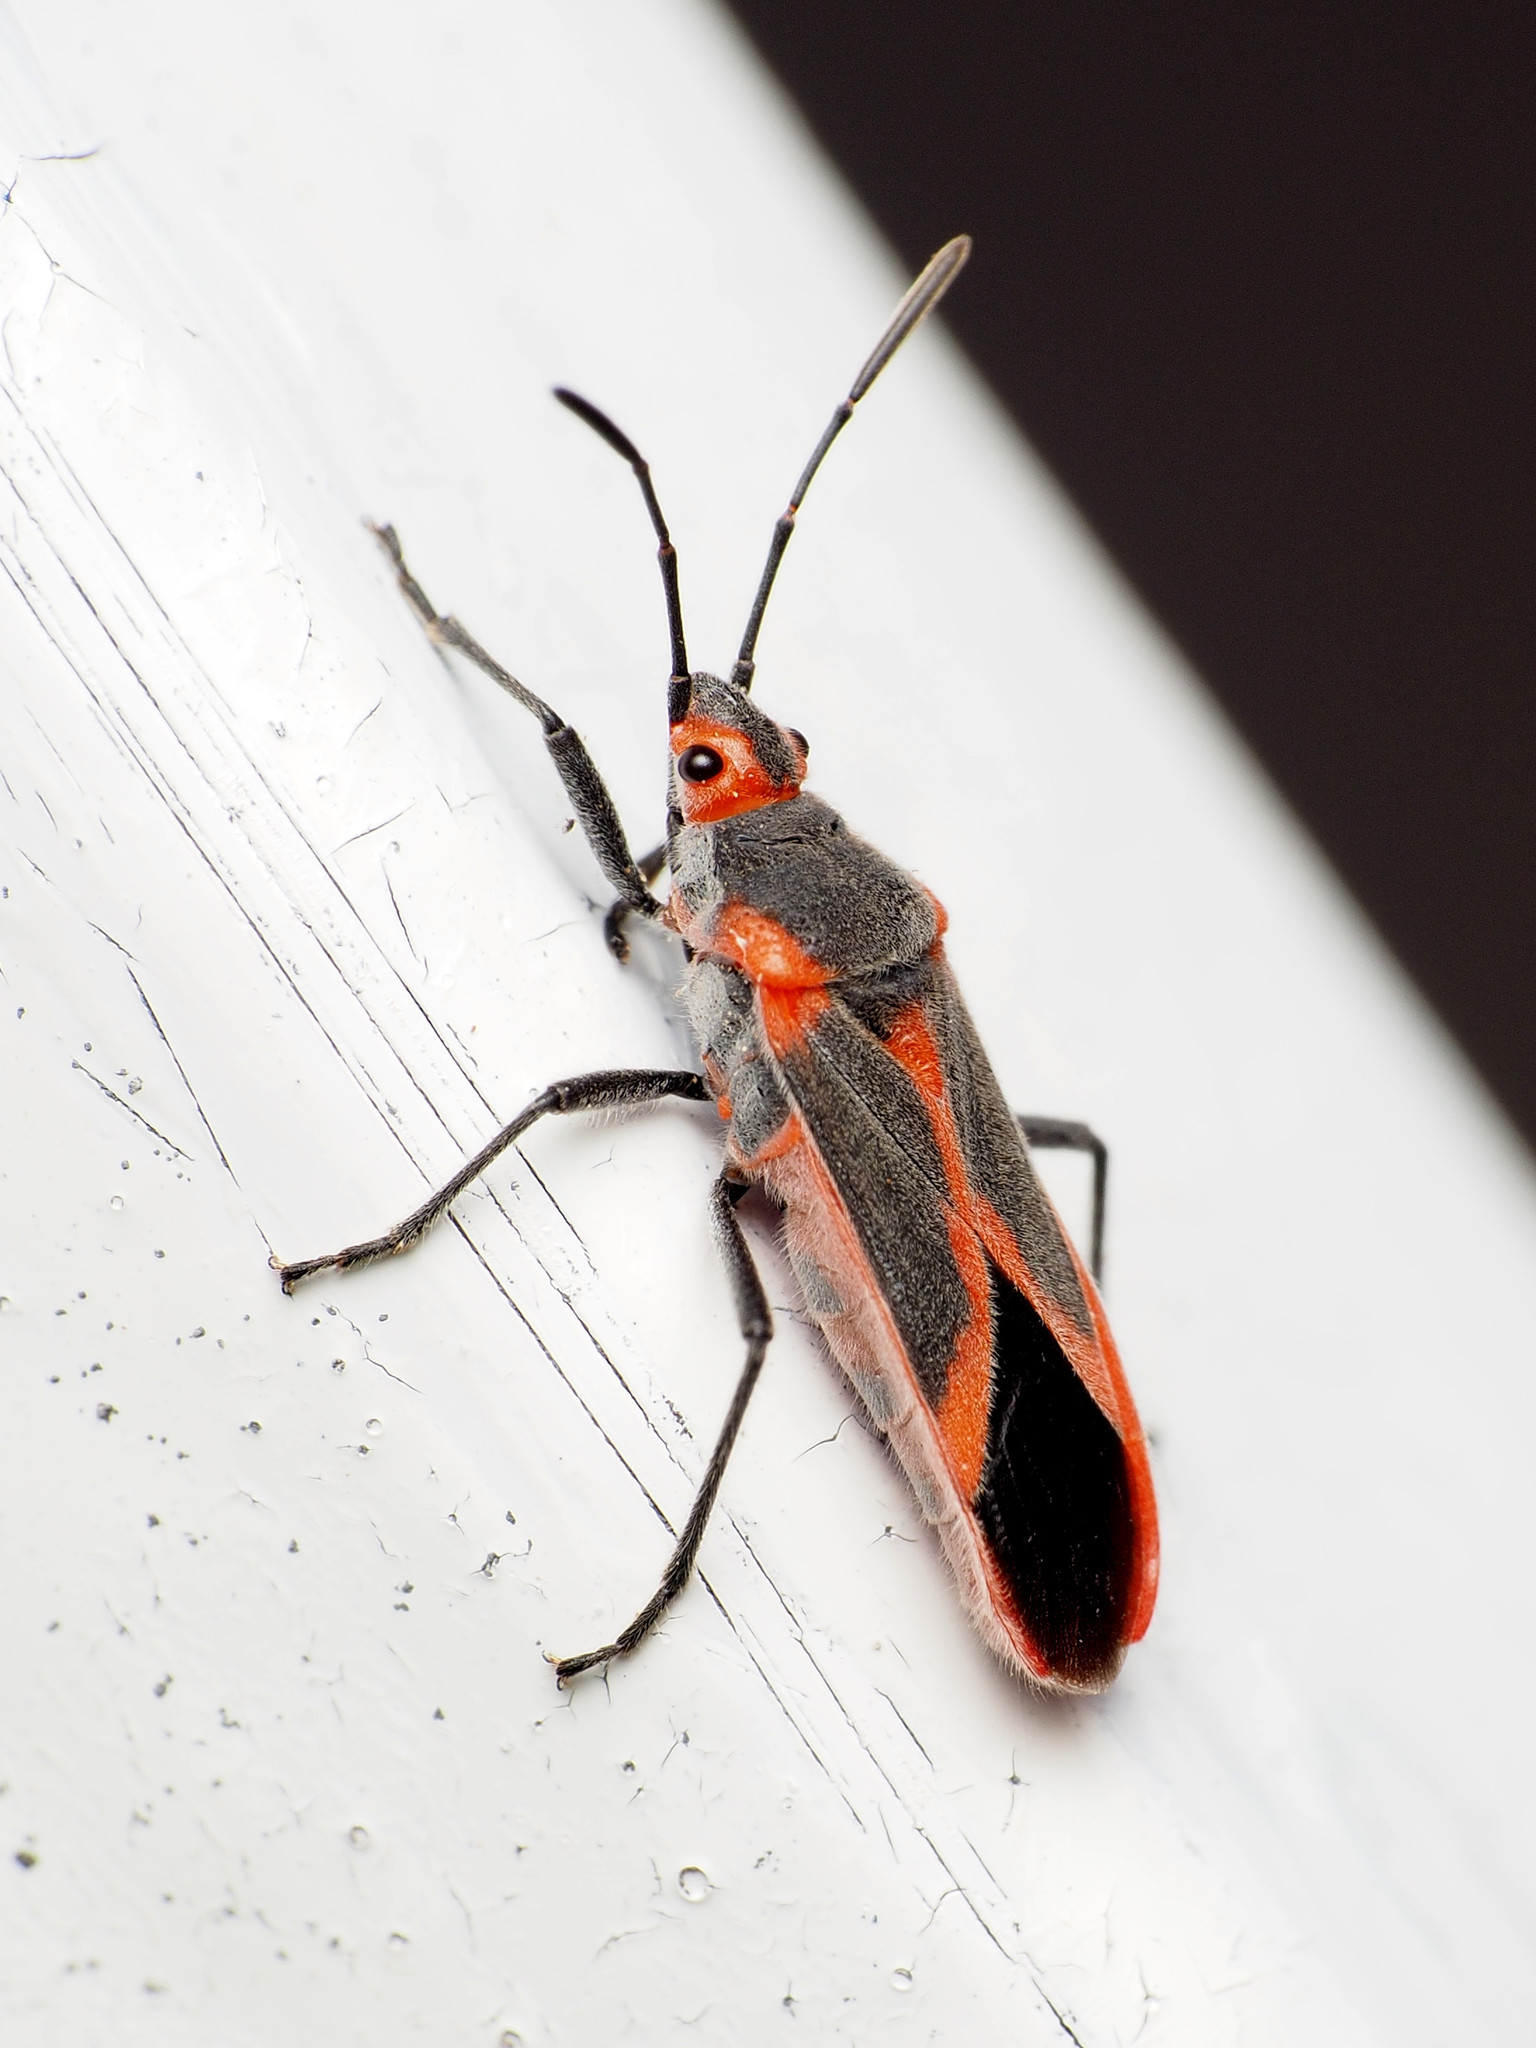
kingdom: Animalia
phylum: Arthropoda
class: Insecta
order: Hemiptera
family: Lygaeidae
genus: Caenocoris
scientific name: Caenocoris nerii
